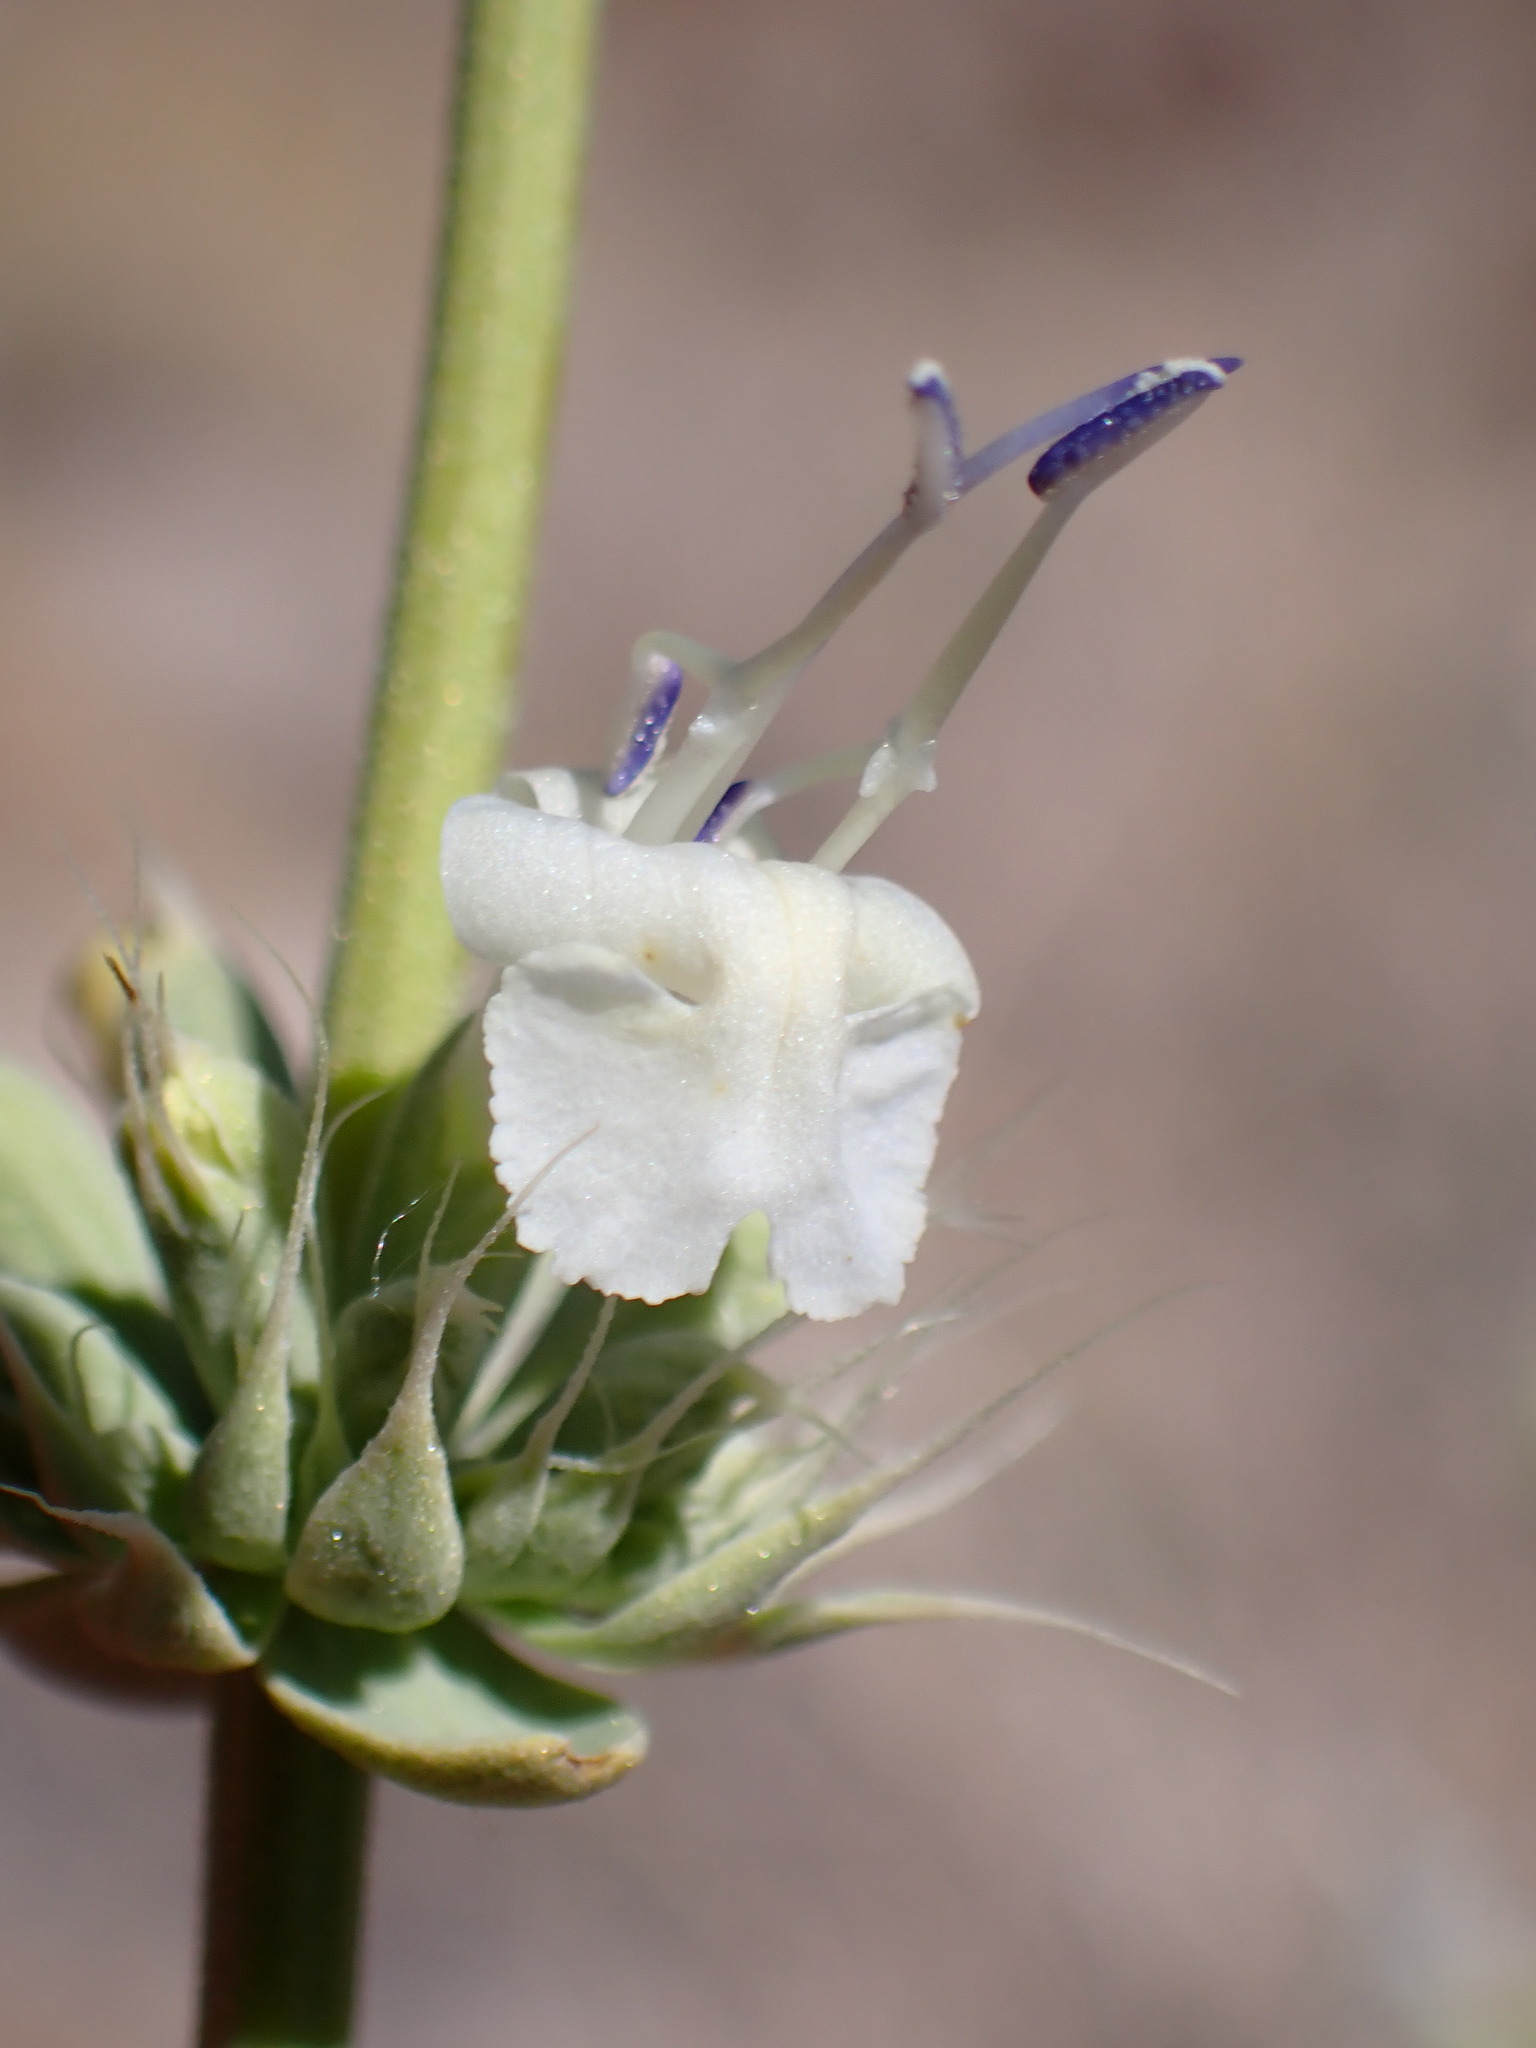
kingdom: Plantae
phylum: Tracheophyta
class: Magnoliopsida
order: Lamiales
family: Lamiaceae
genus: Salvia
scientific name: Salvia vaseyi
